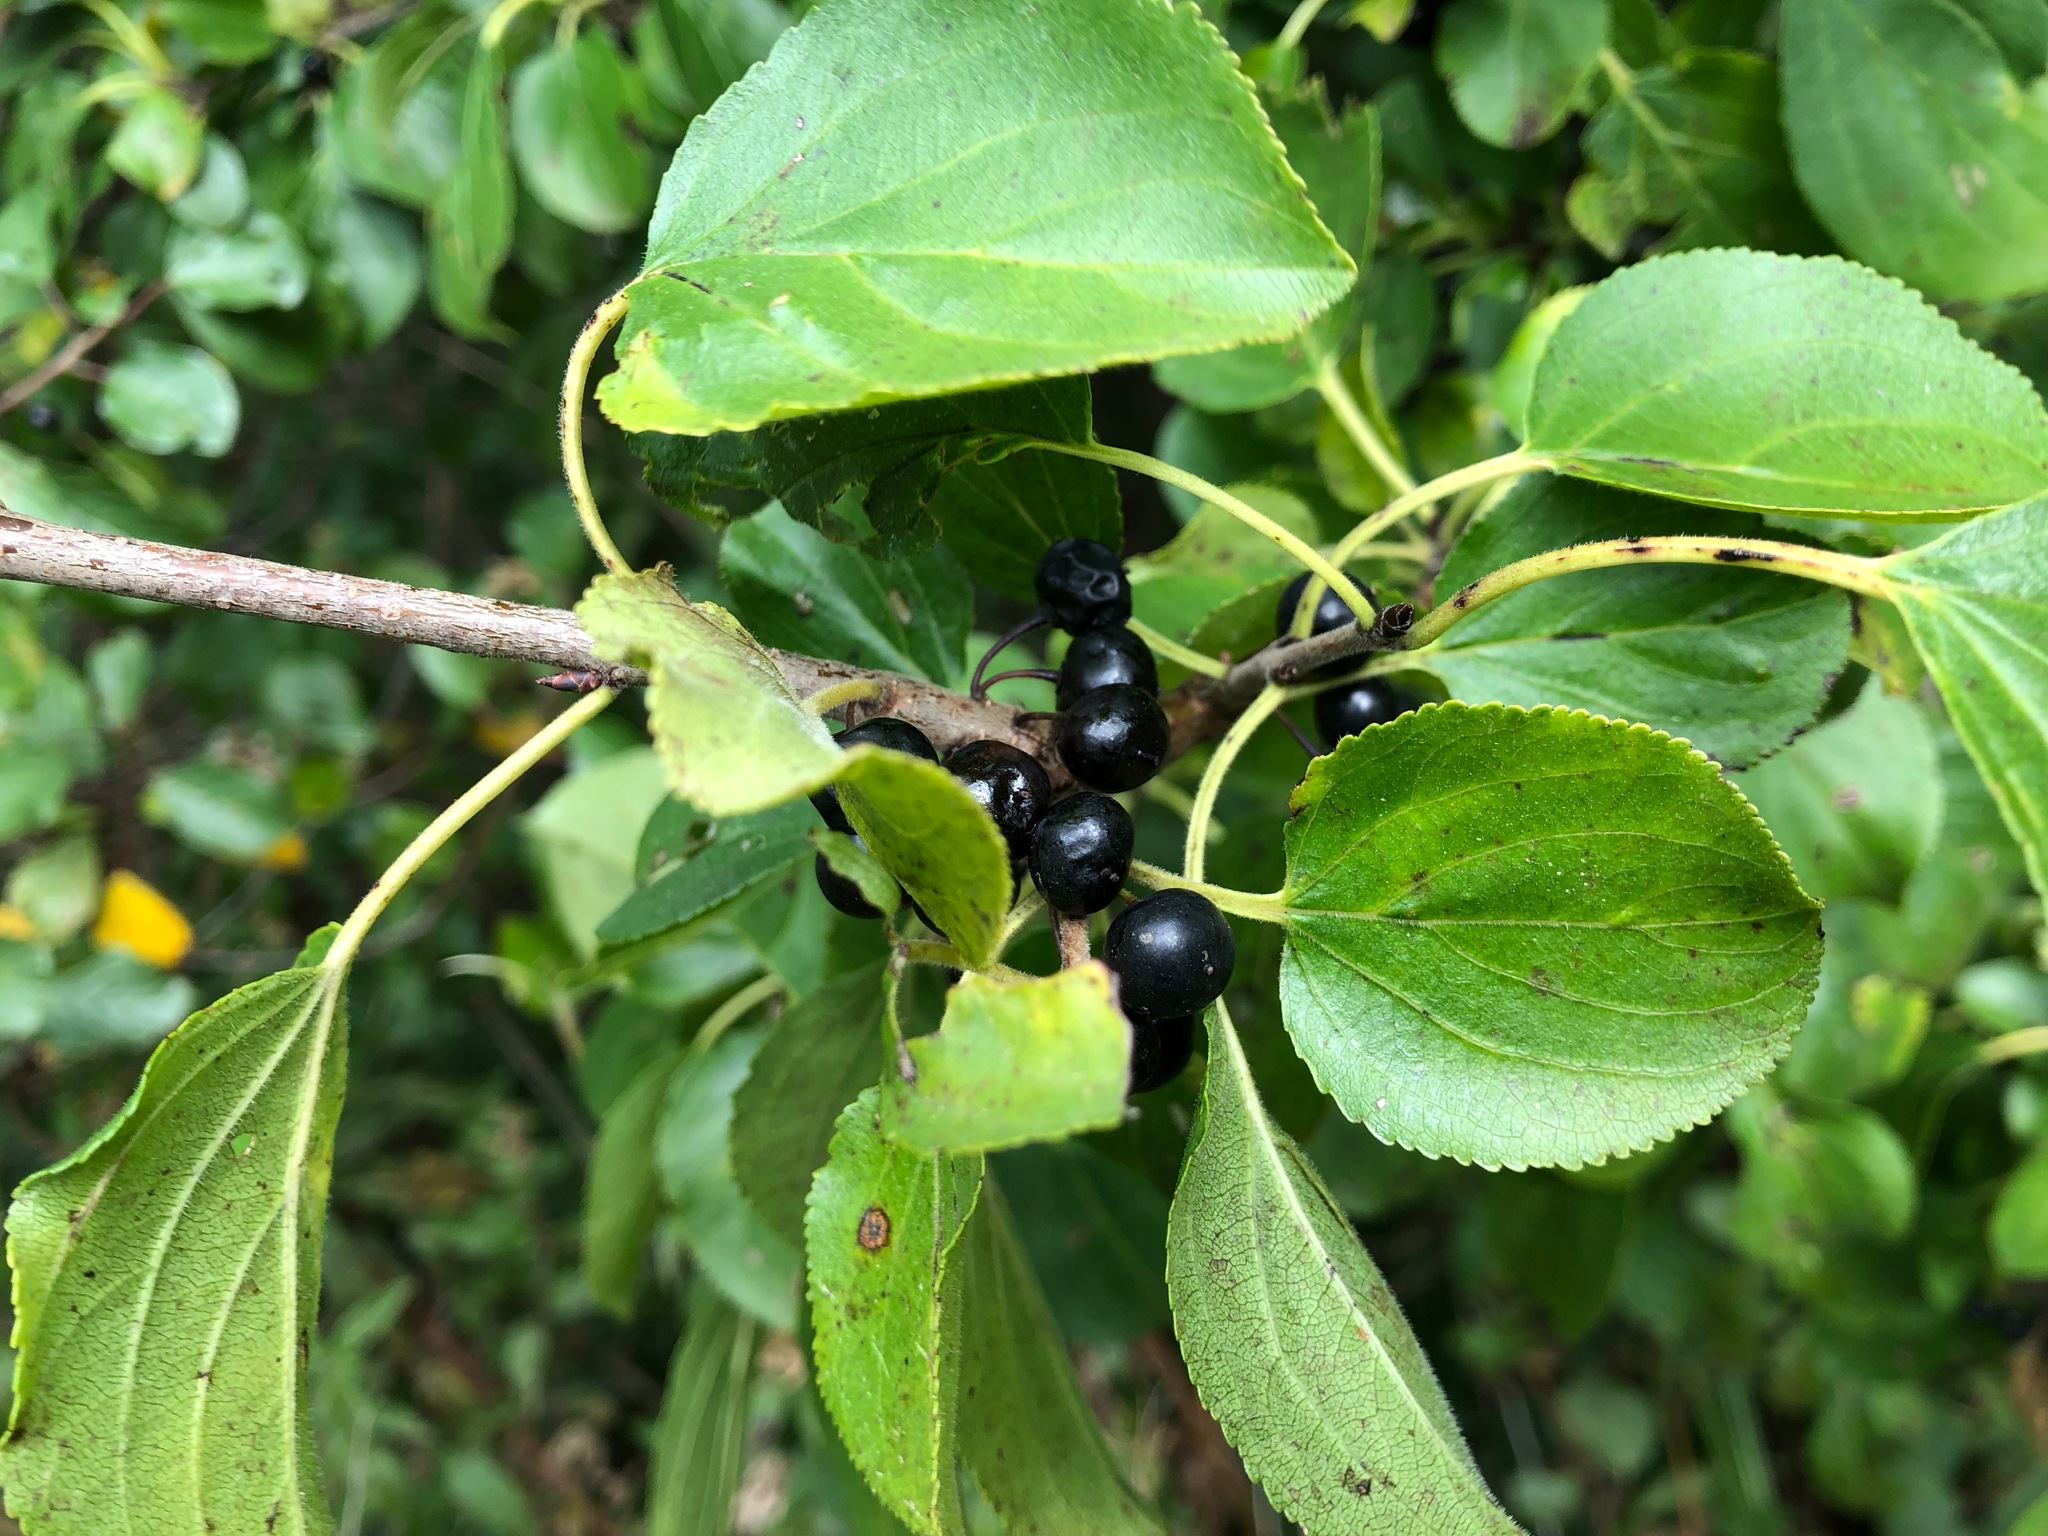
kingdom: Plantae
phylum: Tracheophyta
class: Magnoliopsida
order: Rosales
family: Rhamnaceae
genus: Rhamnus
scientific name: Rhamnus cathartica
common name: Common buckthorn
